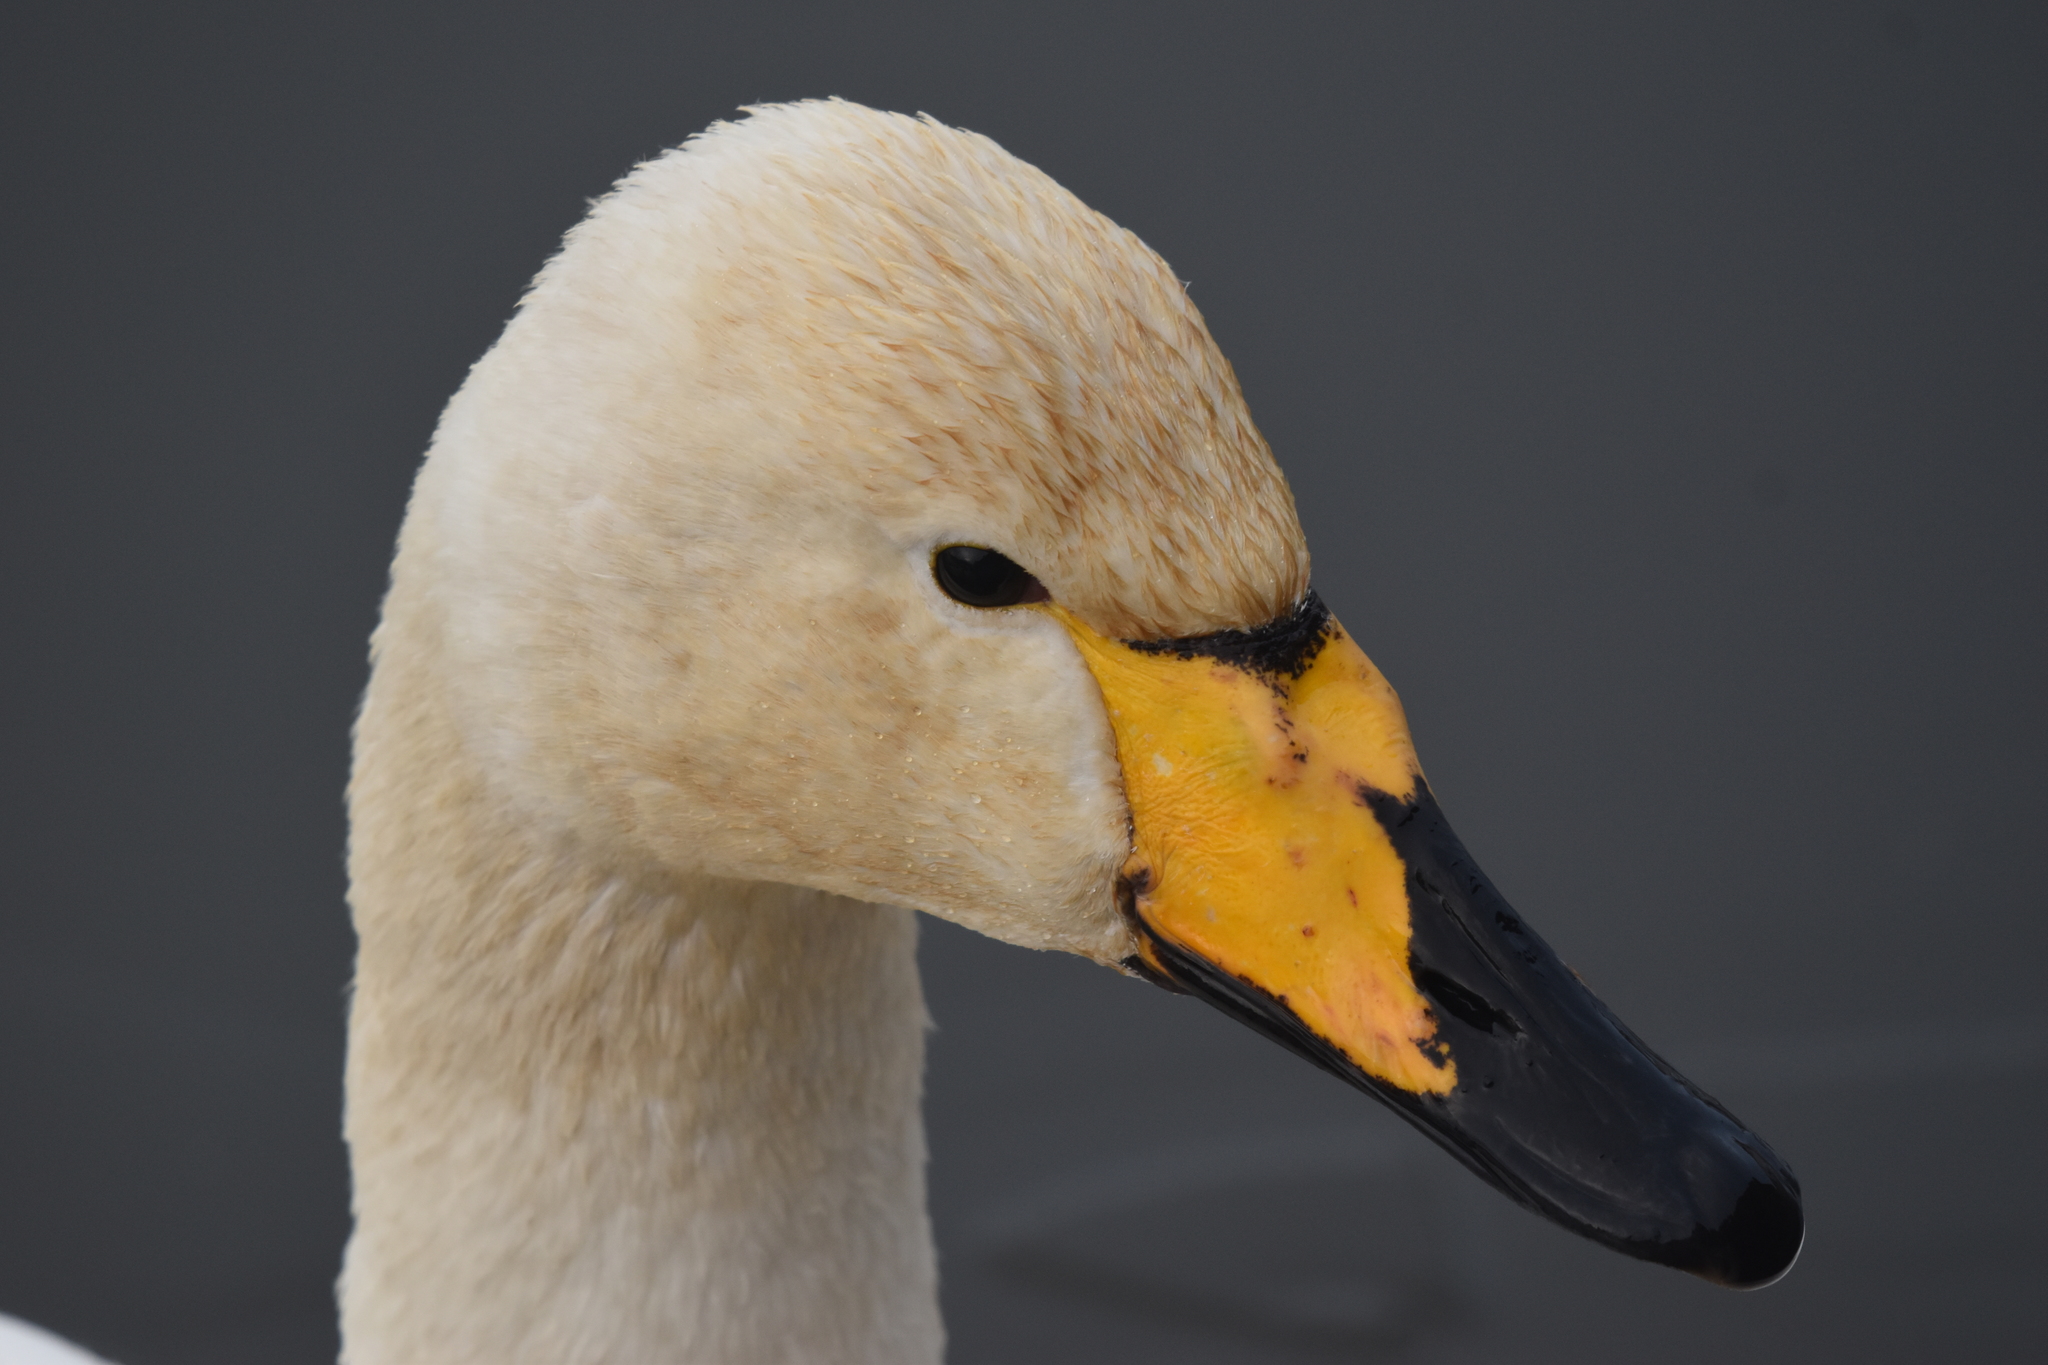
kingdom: Animalia
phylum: Chordata
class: Aves
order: Anseriformes
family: Anatidae
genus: Cygnus
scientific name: Cygnus cygnus
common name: Whooper swan
